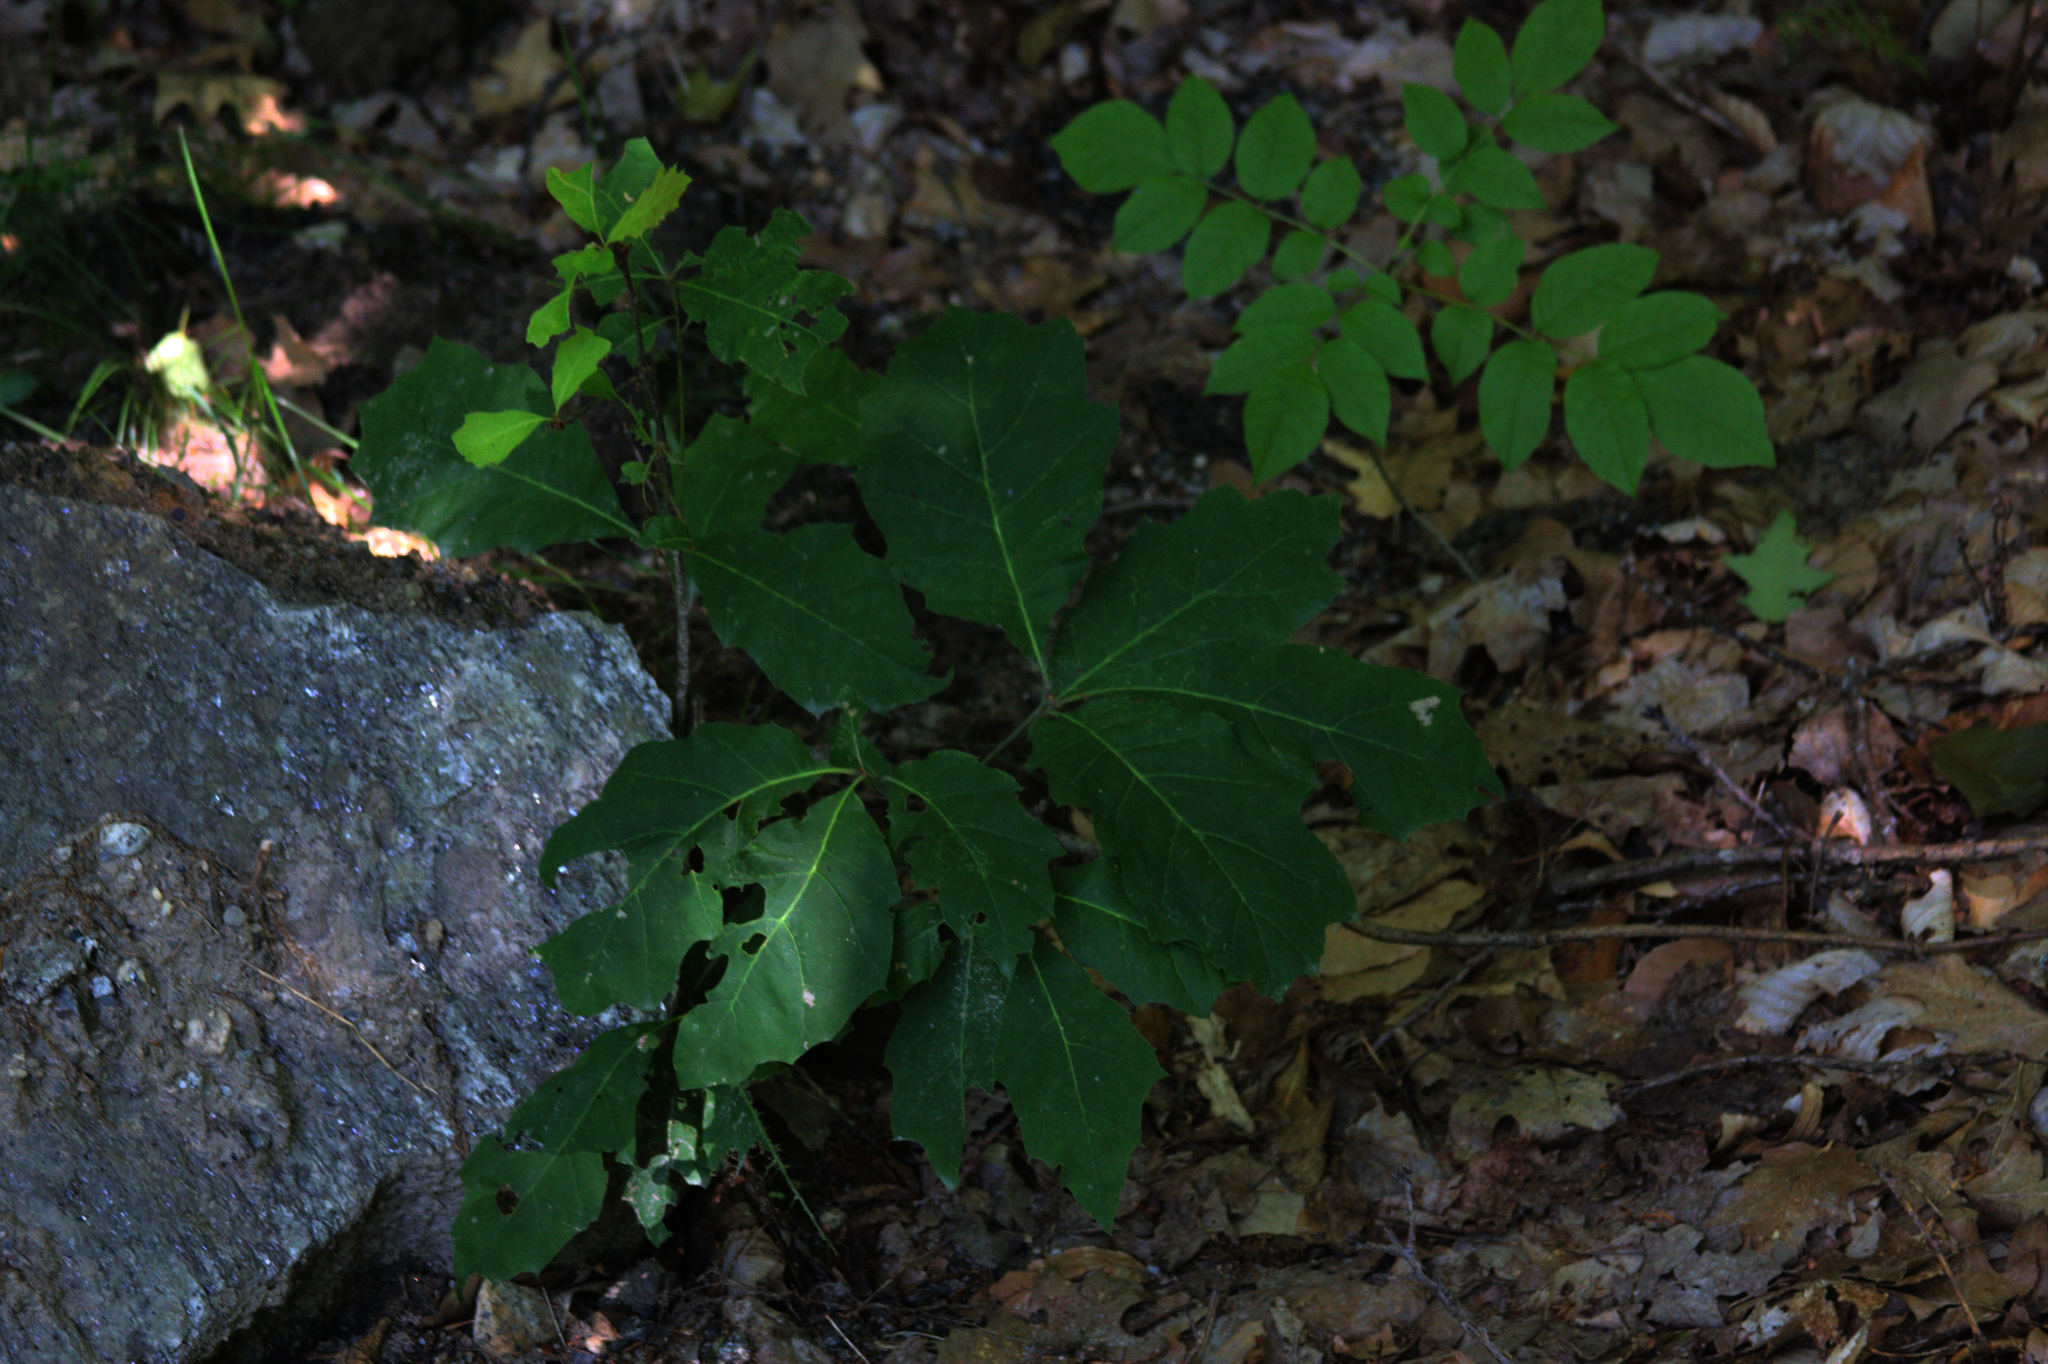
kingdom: Plantae
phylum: Tracheophyta
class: Magnoliopsida
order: Fagales
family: Fagaceae
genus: Quercus
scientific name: Quercus rubra
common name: Red oak
